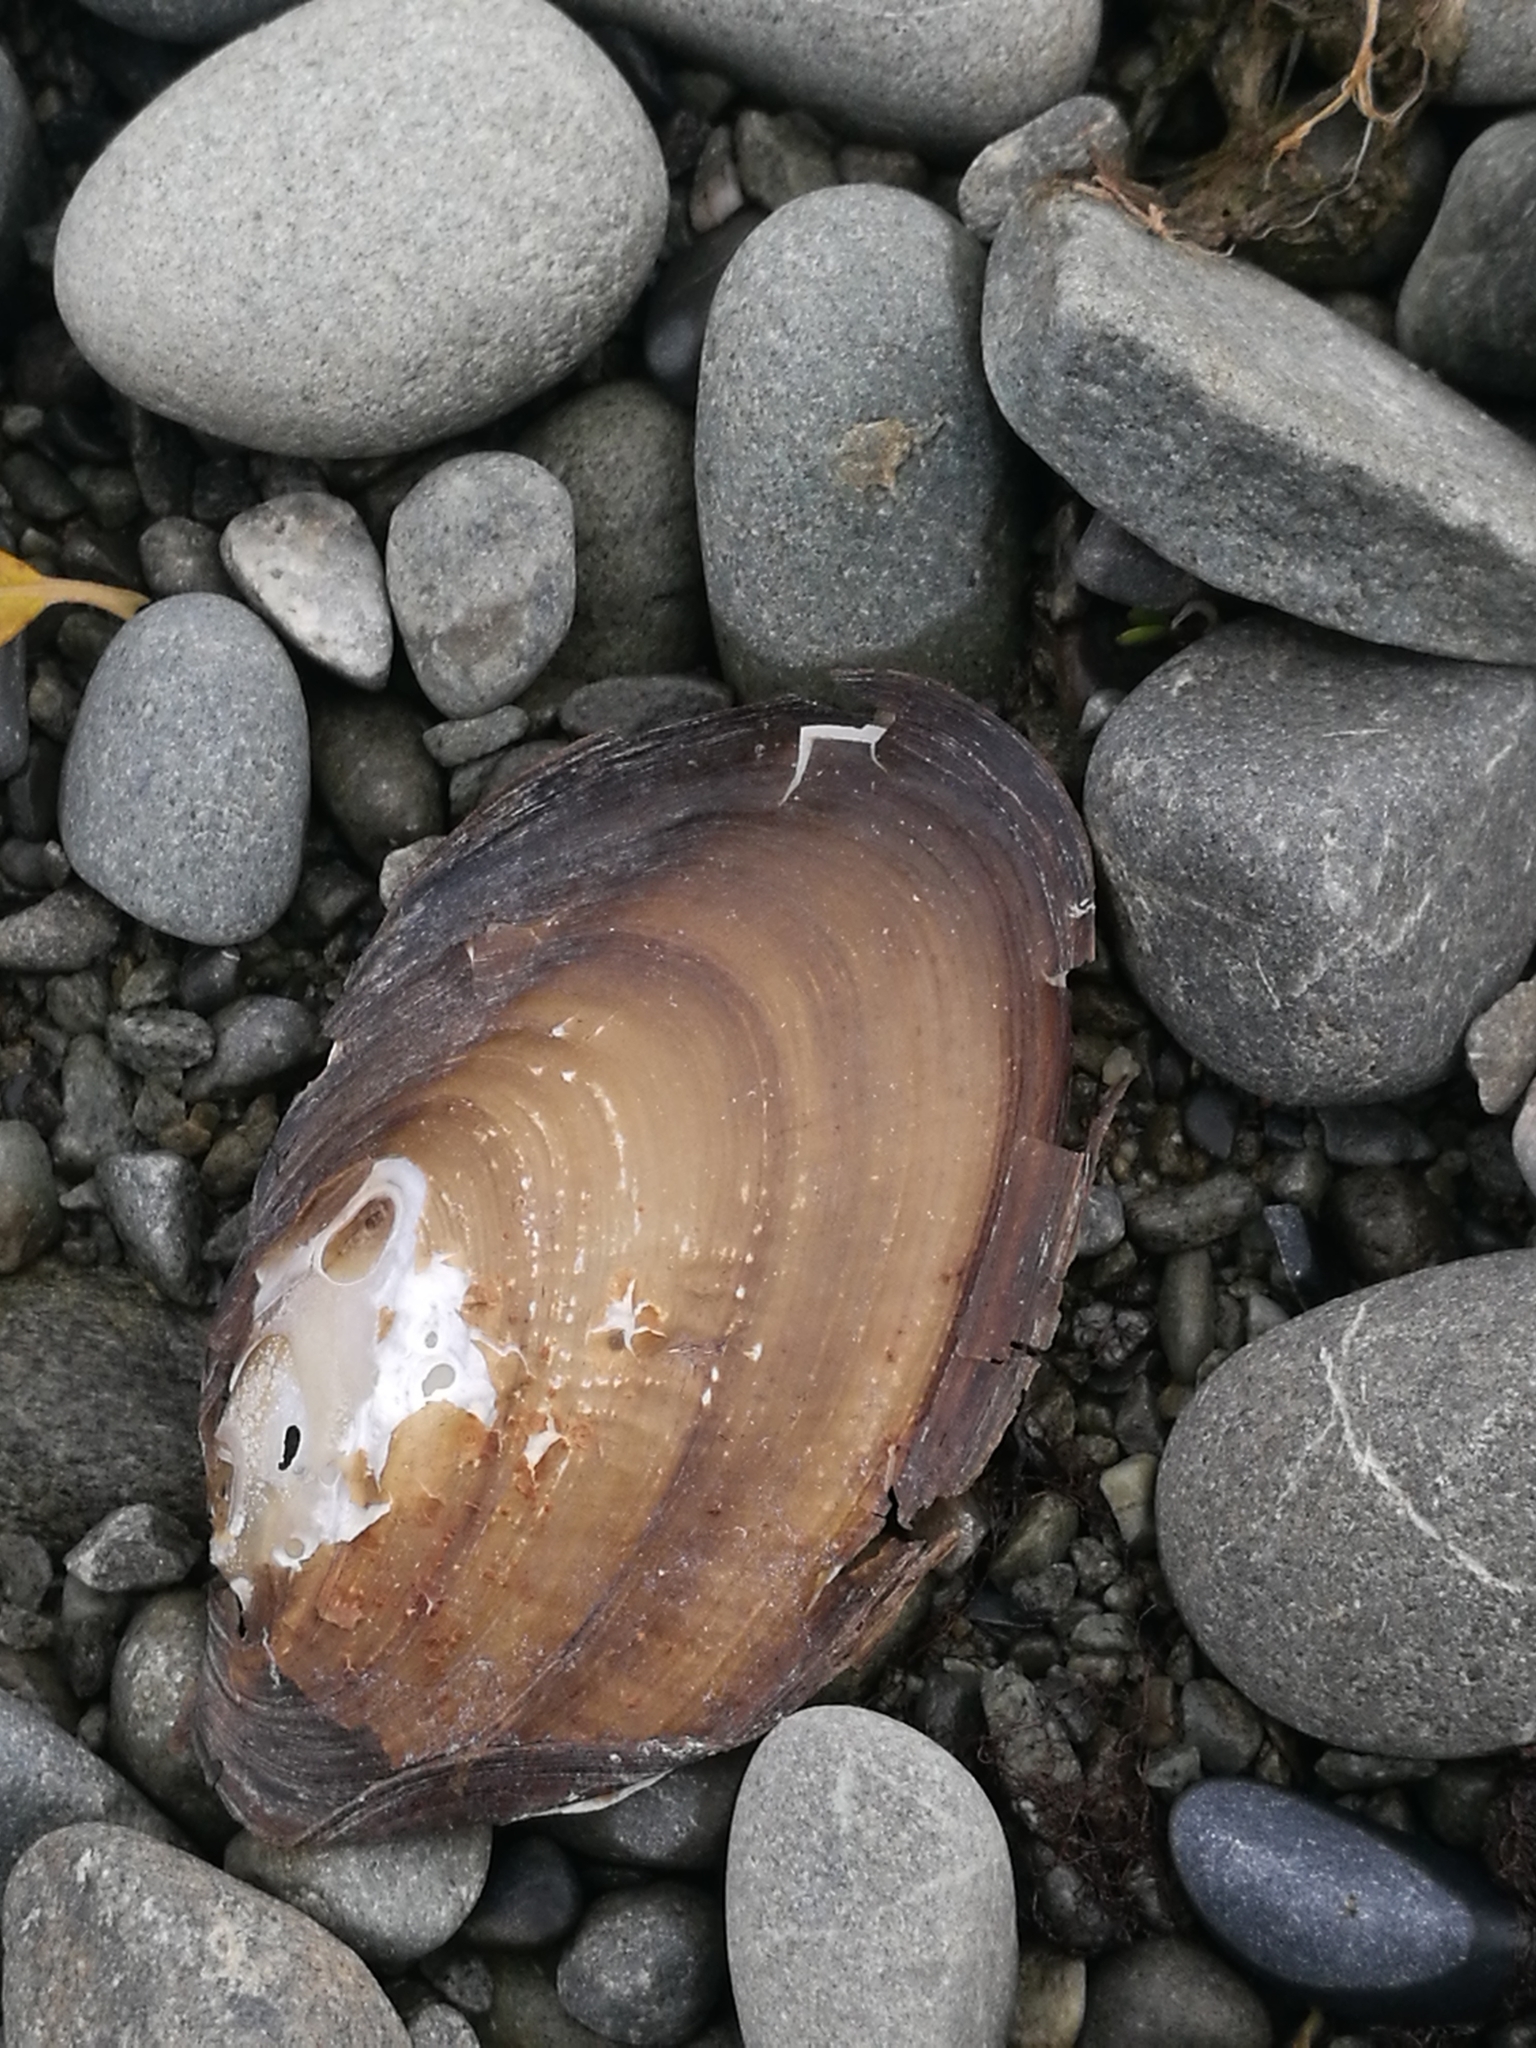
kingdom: Animalia
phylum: Mollusca
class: Bivalvia
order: Unionida
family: Hyriidae
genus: Echyridella
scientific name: Echyridella menziesii
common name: New zealand freshwater mussel
